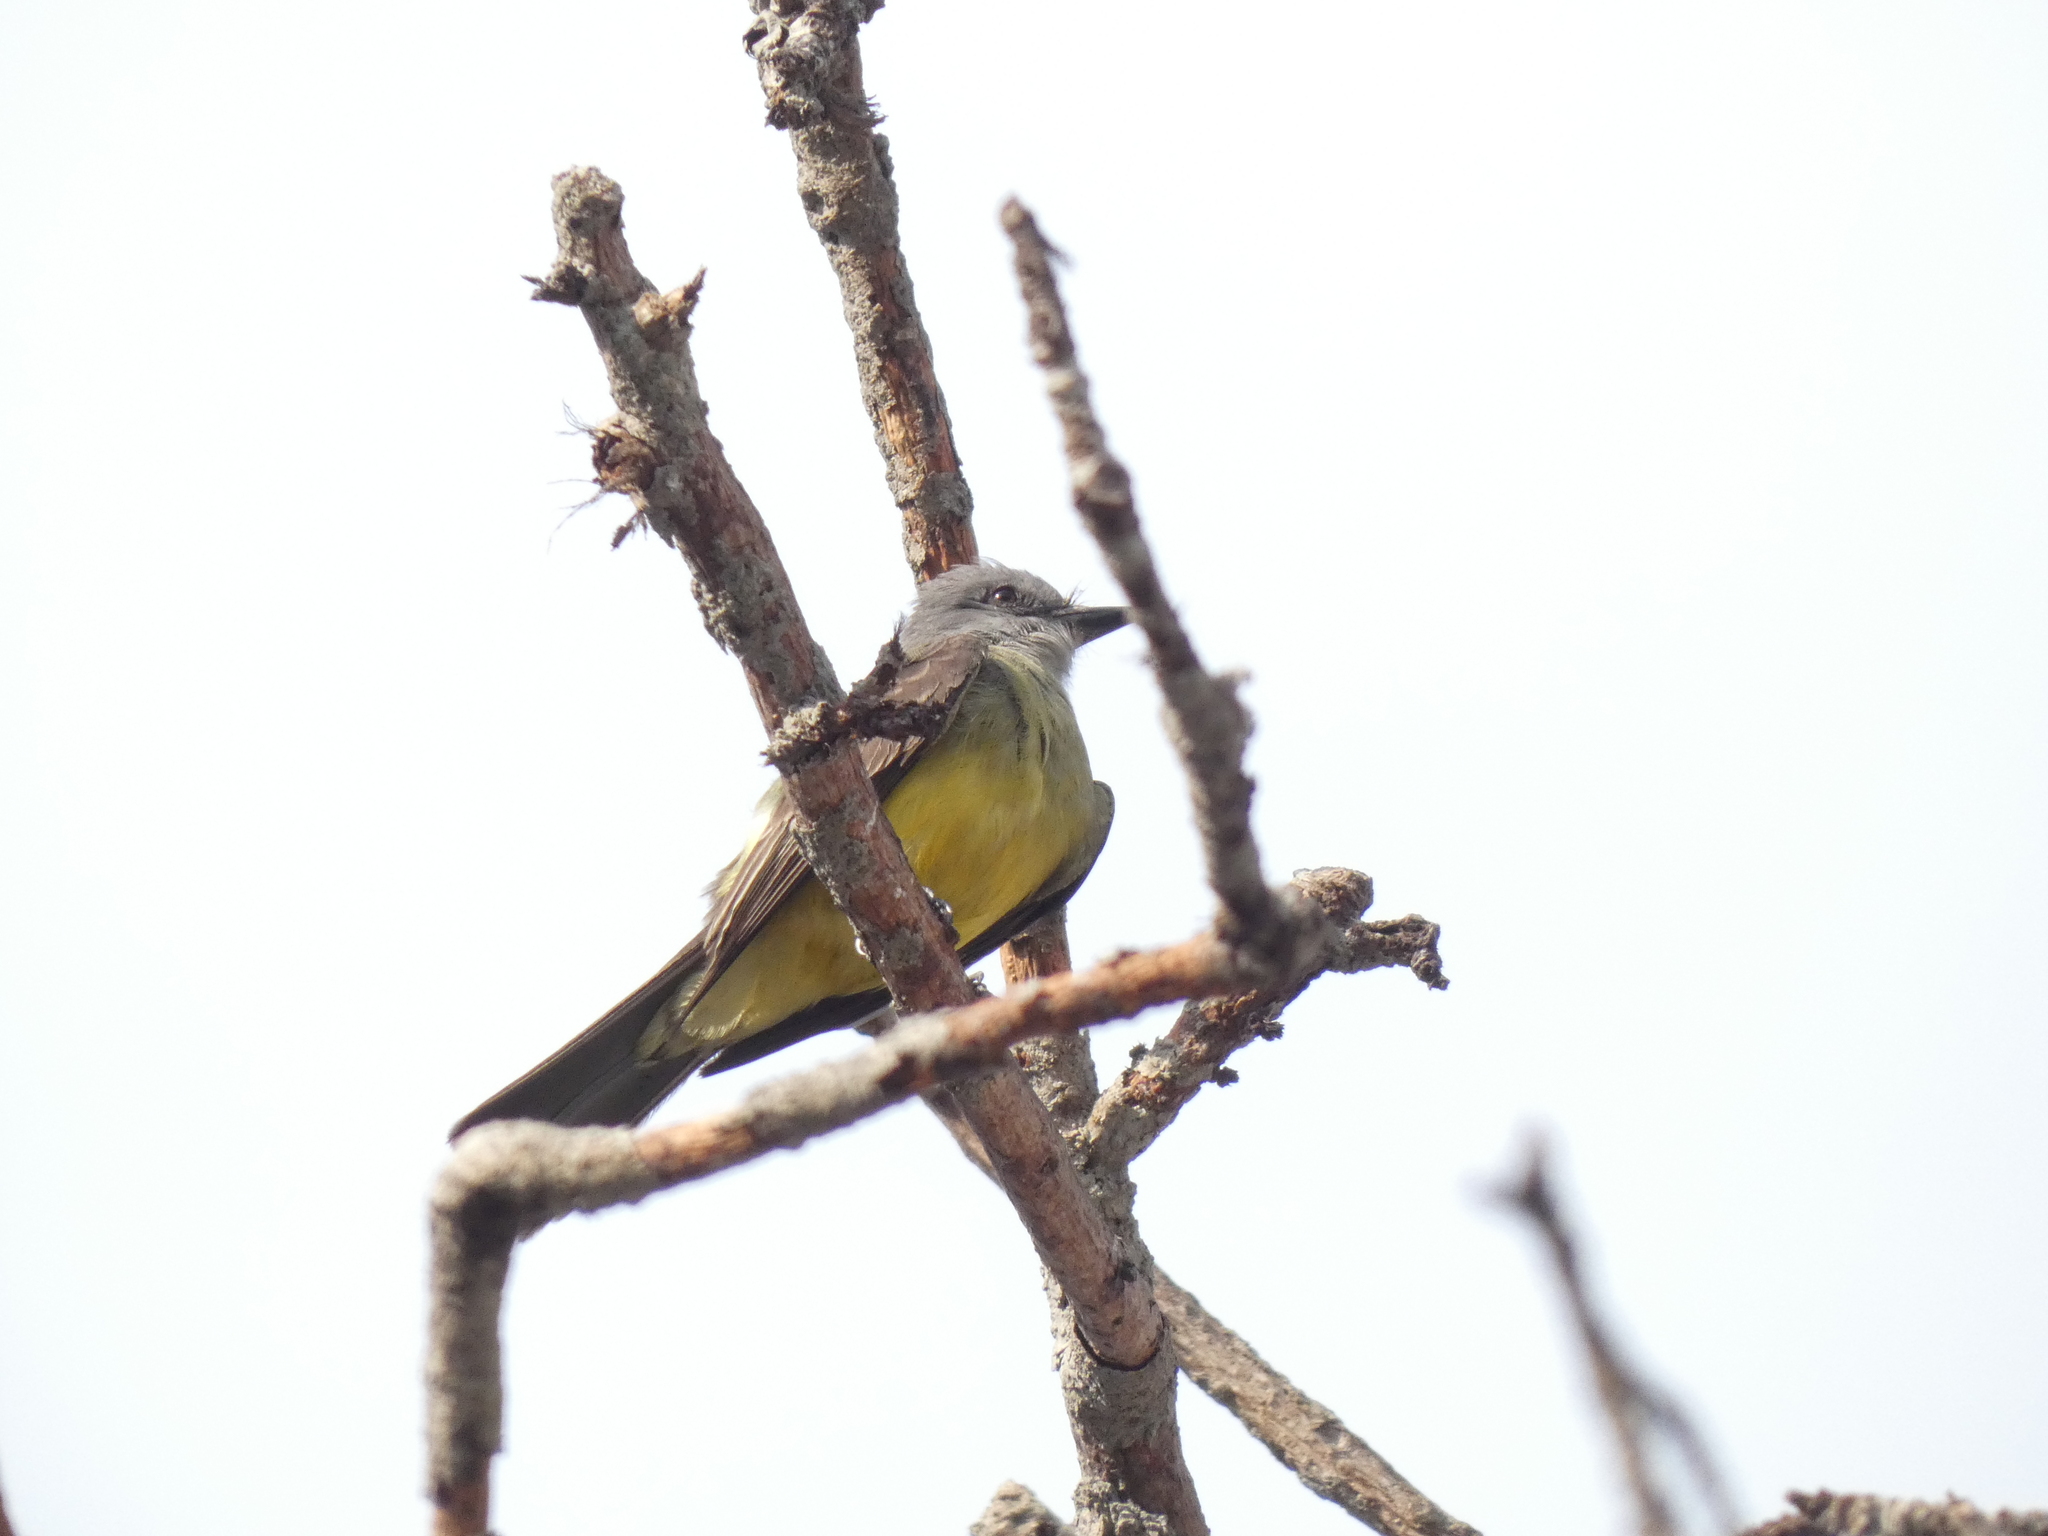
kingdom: Animalia
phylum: Chordata
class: Aves
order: Passeriformes
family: Tyrannidae
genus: Tyrannus
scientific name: Tyrannus melancholicus
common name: Tropical kingbird
